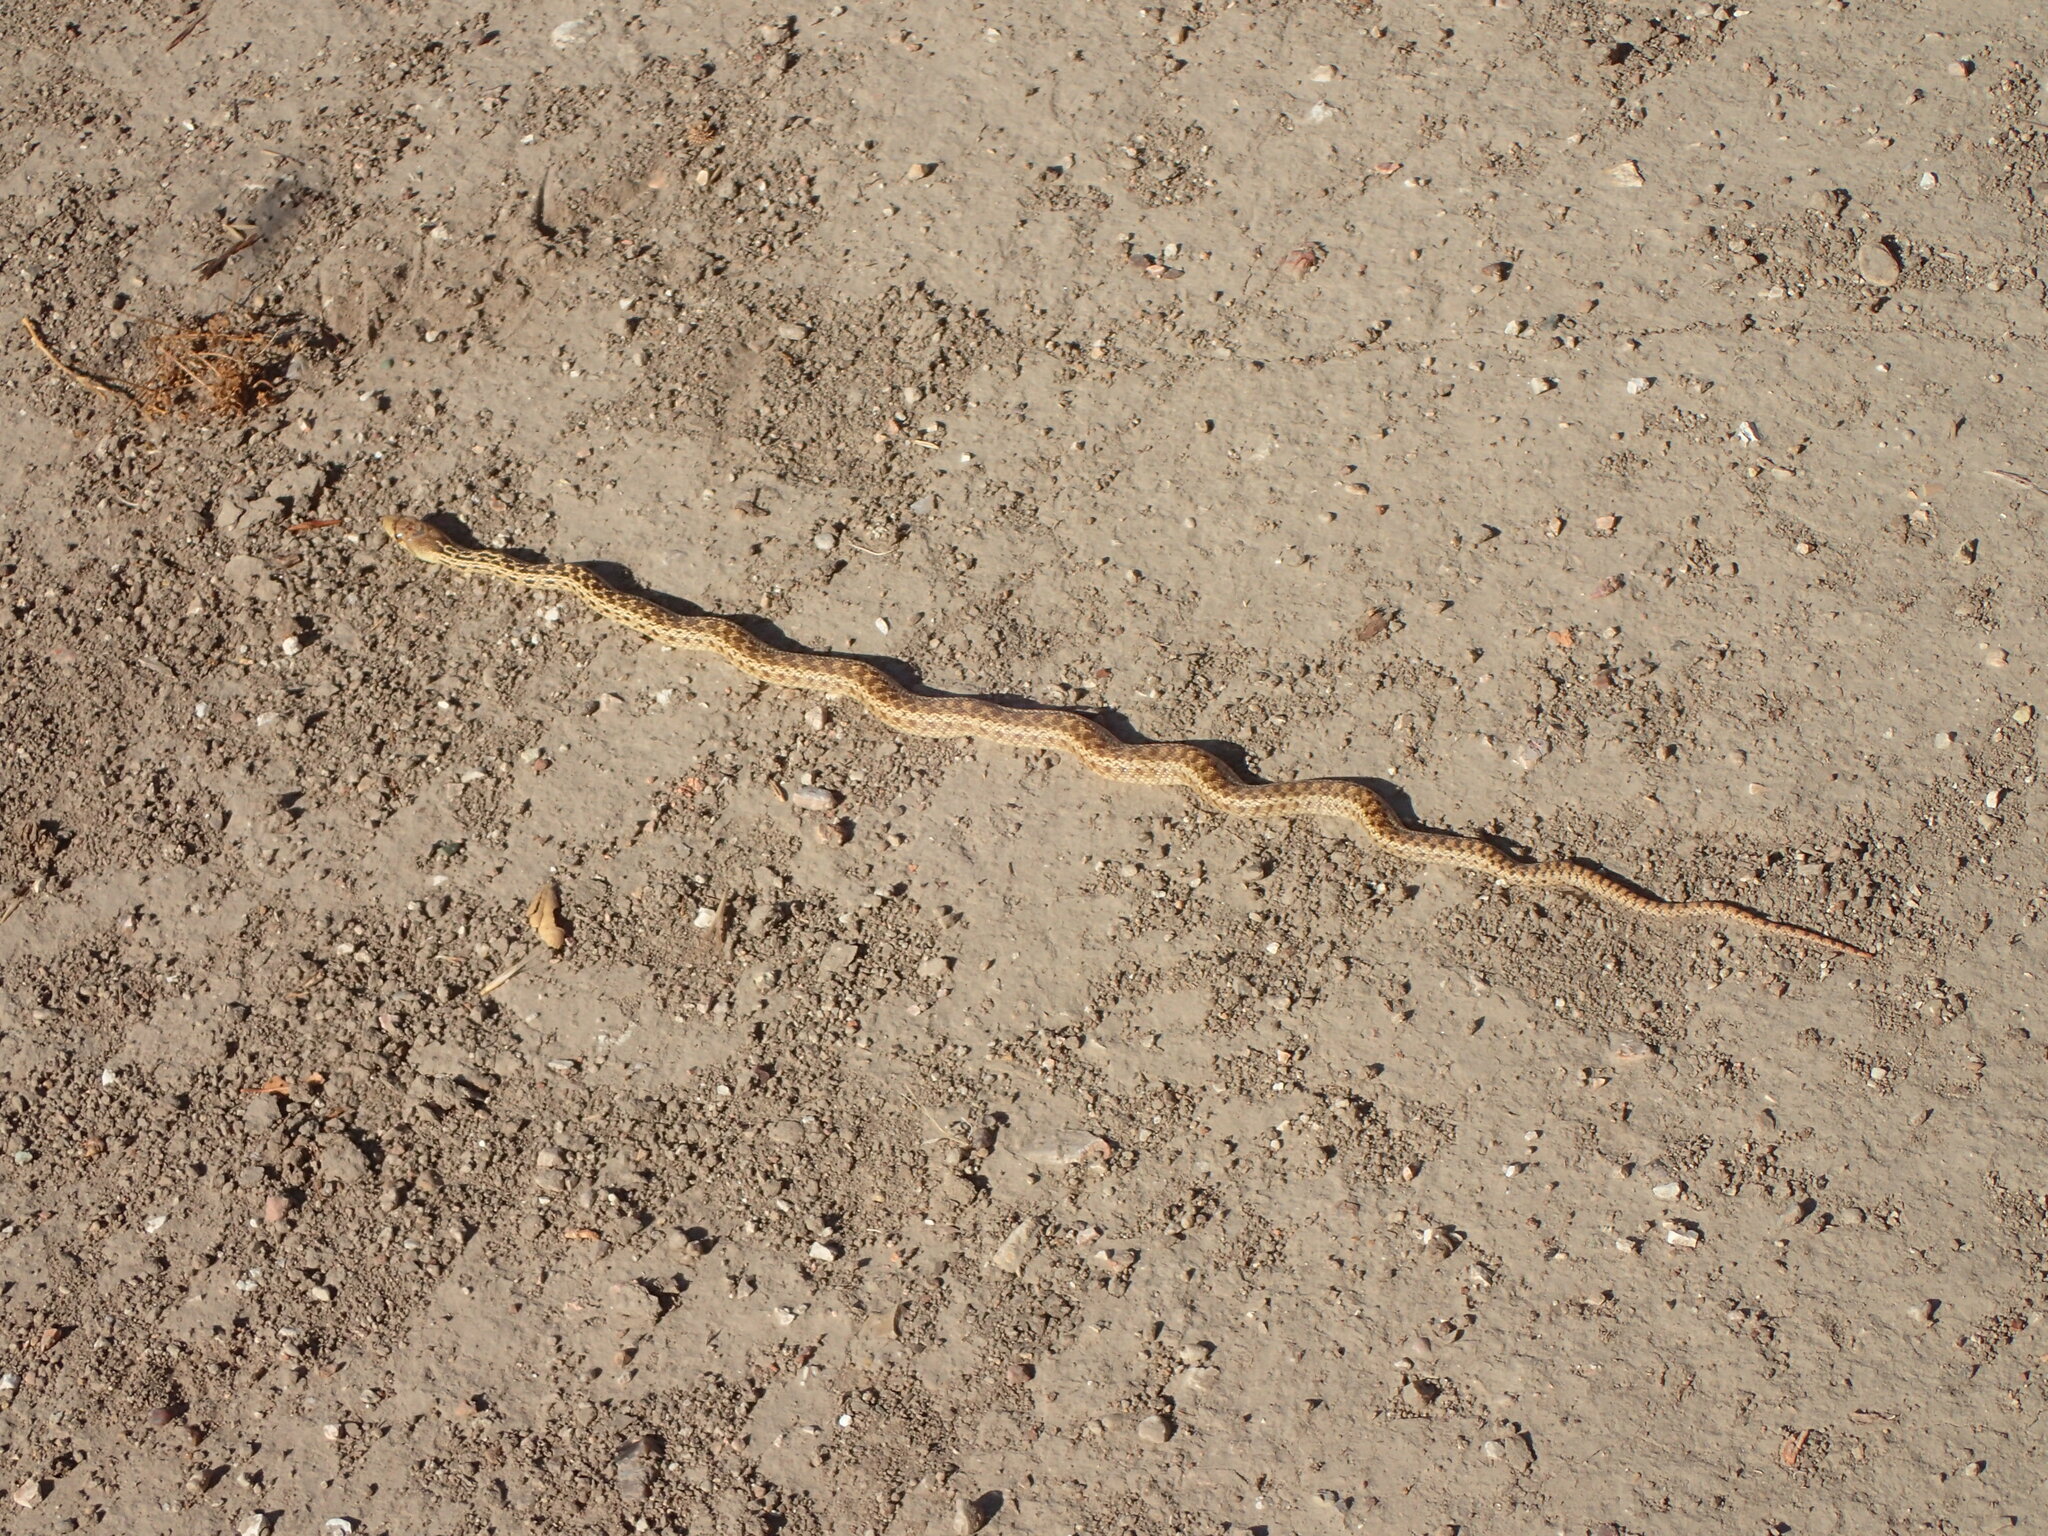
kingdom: Animalia
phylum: Chordata
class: Squamata
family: Colubridae
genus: Pituophis
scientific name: Pituophis catenifer
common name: Gopher snake
